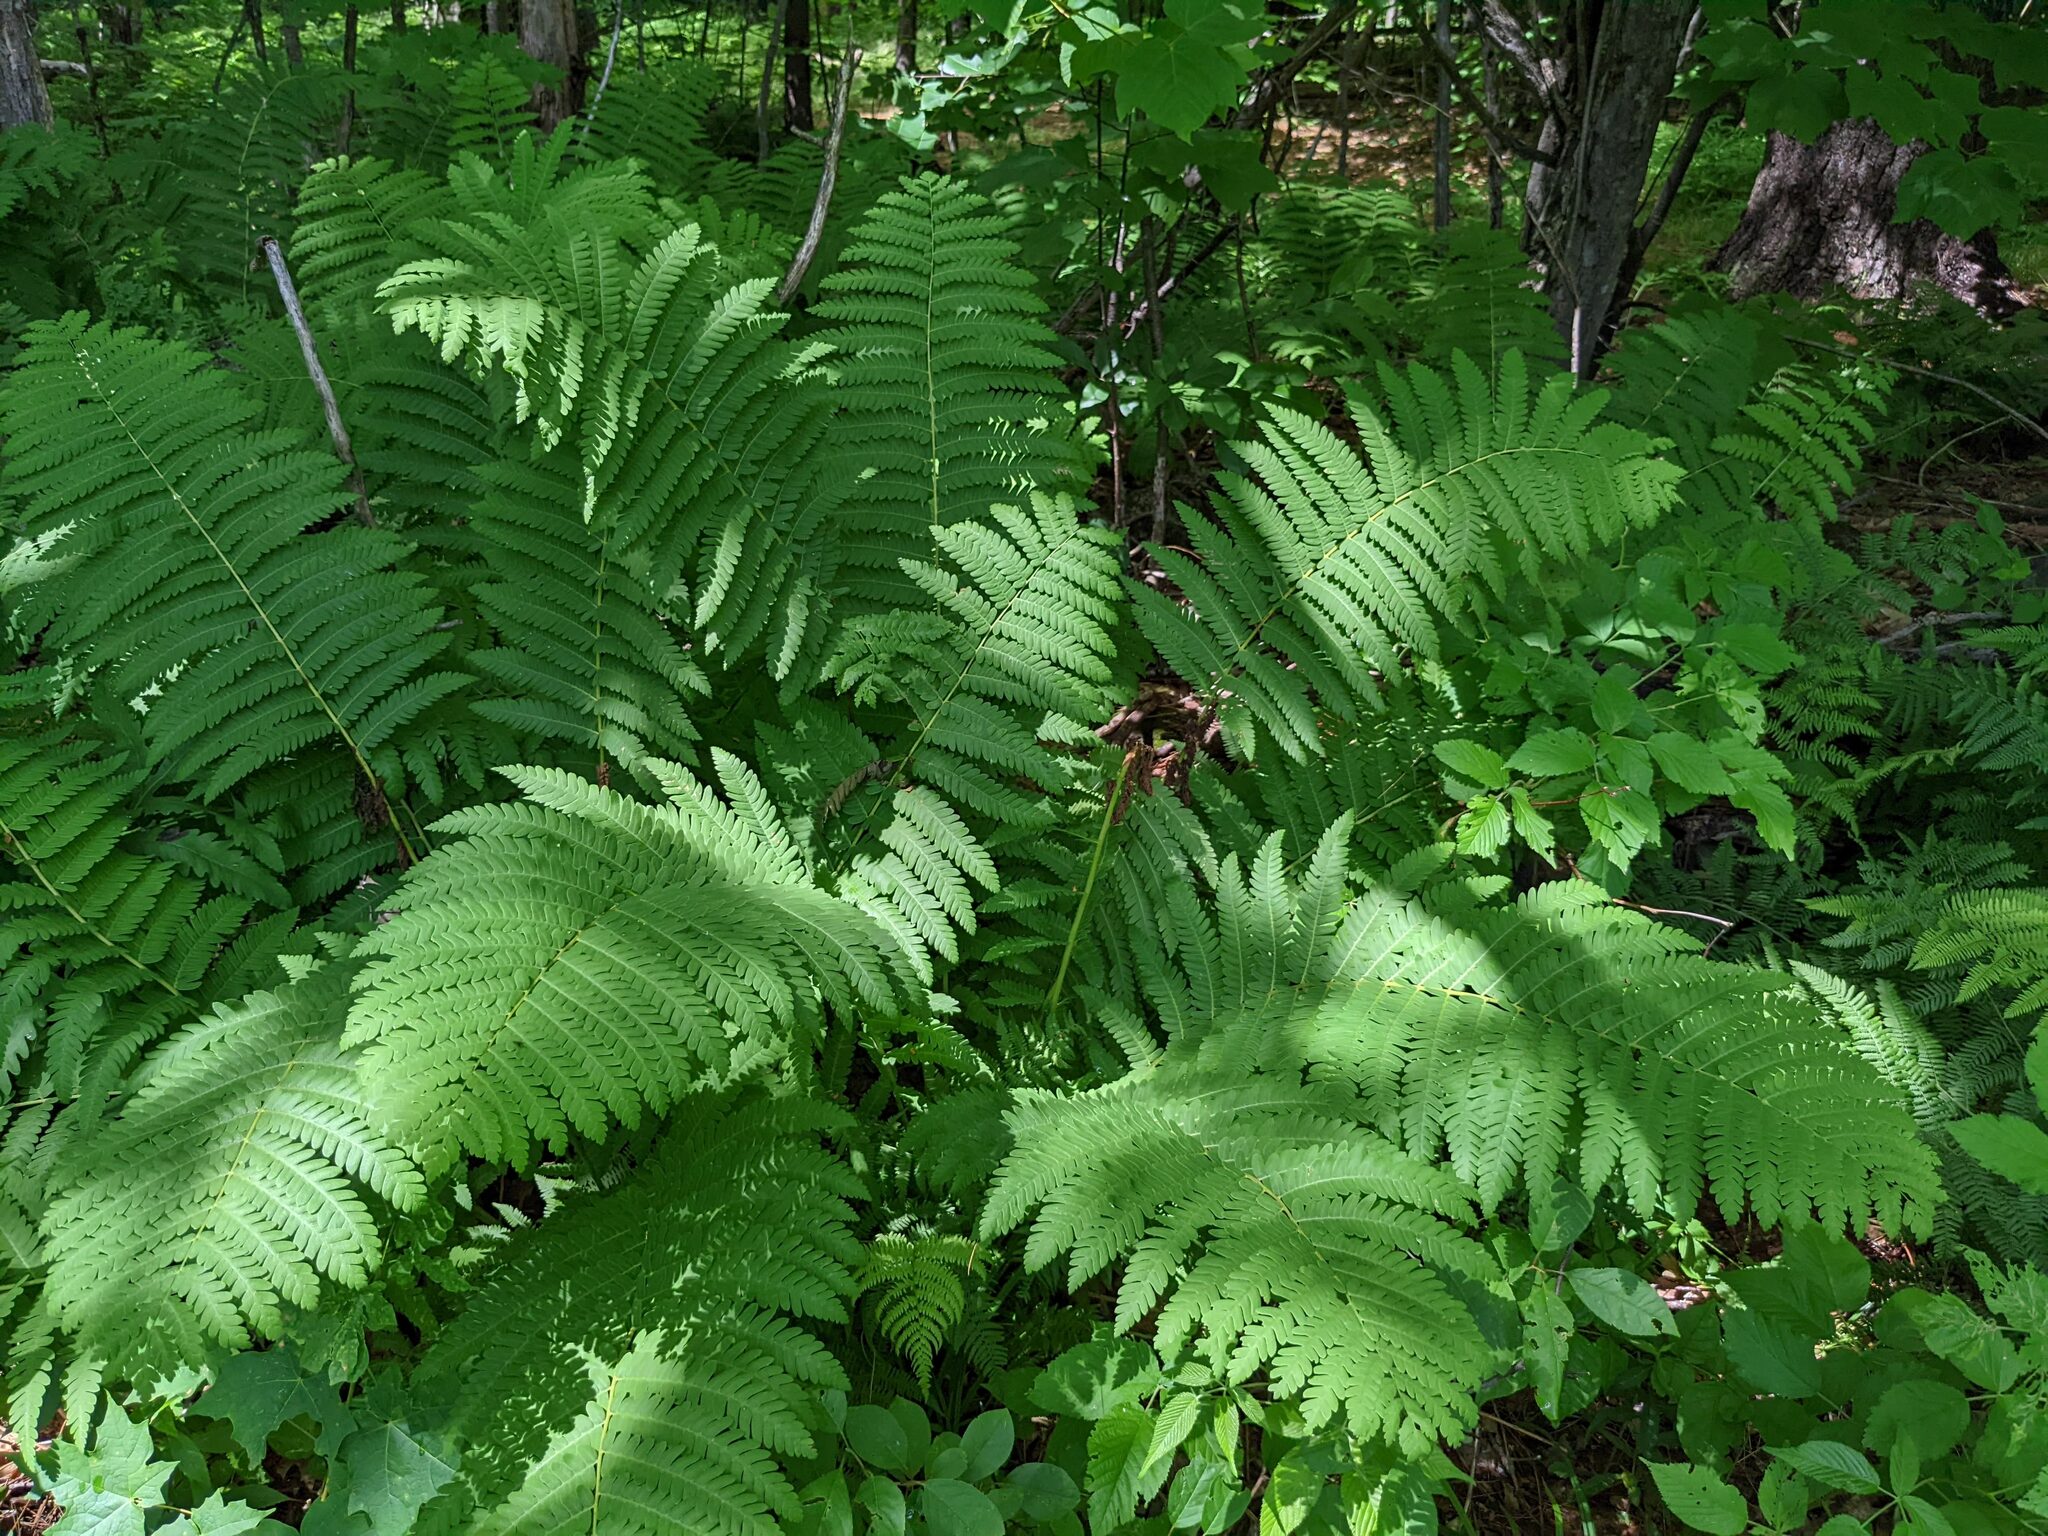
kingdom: Plantae
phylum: Tracheophyta
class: Polypodiopsida
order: Osmundales
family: Osmundaceae
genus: Claytosmunda
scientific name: Claytosmunda claytoniana
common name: Clayton's fern
